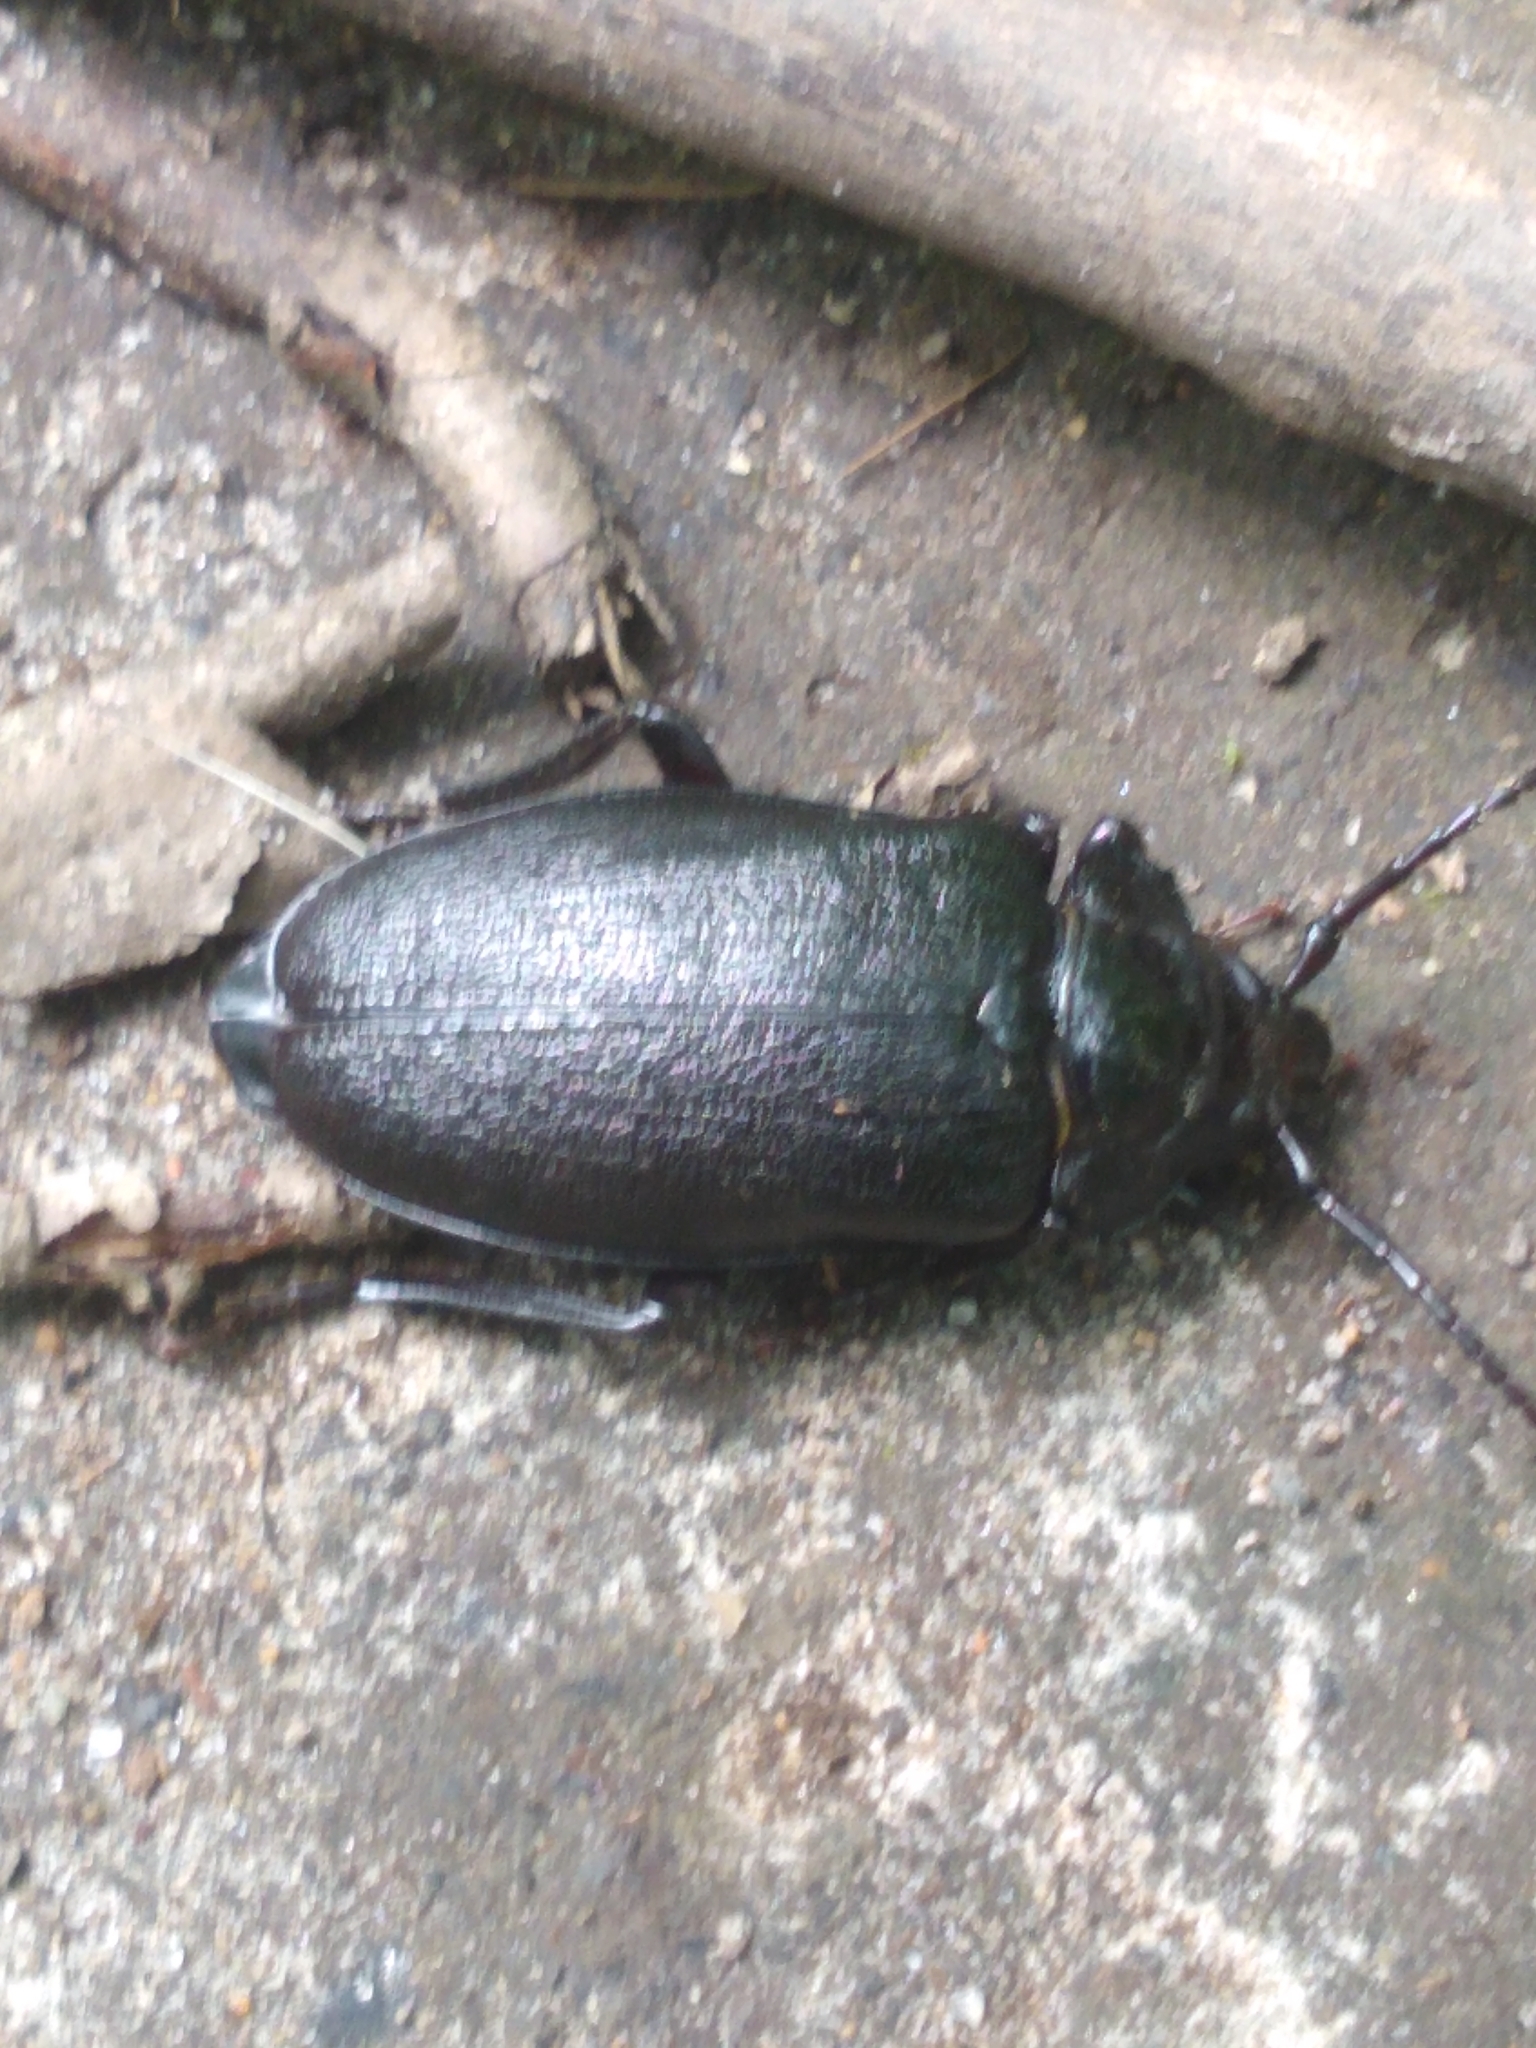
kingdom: Animalia
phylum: Arthropoda
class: Insecta
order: Coleoptera
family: Cerambycidae
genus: Prionus
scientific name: Prionus laticollis
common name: Broad necked prionus
